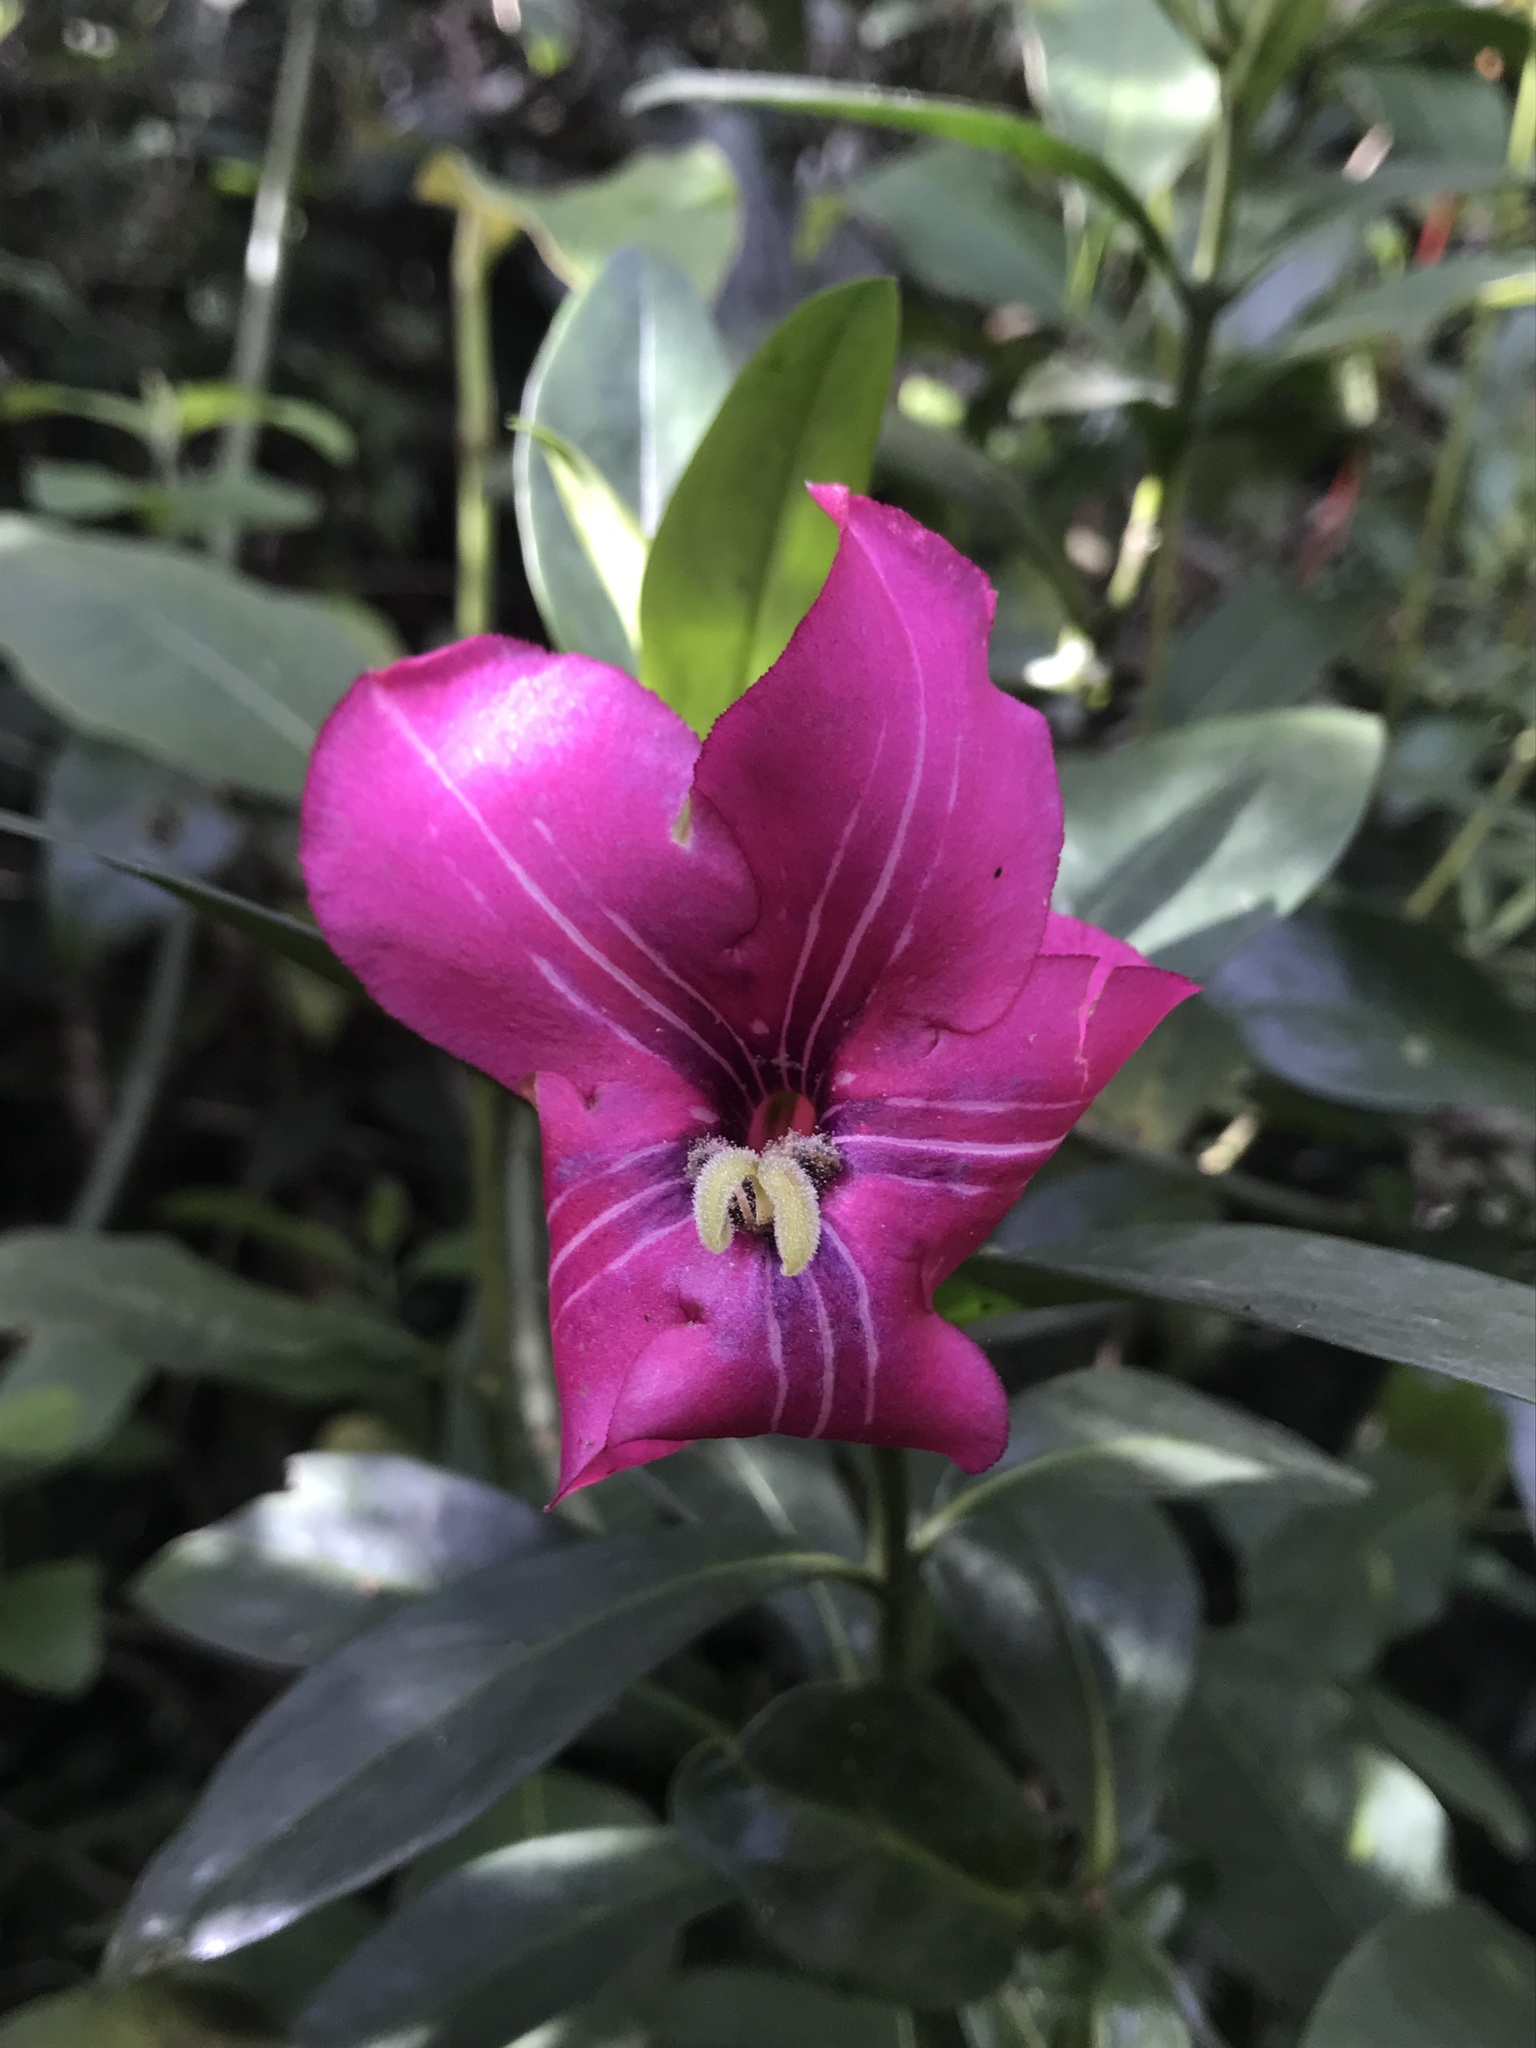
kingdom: Plantae
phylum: Tracheophyta
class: Magnoliopsida
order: Gentianales
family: Gentianaceae
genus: Symbolanthus
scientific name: Symbolanthus anomalus
